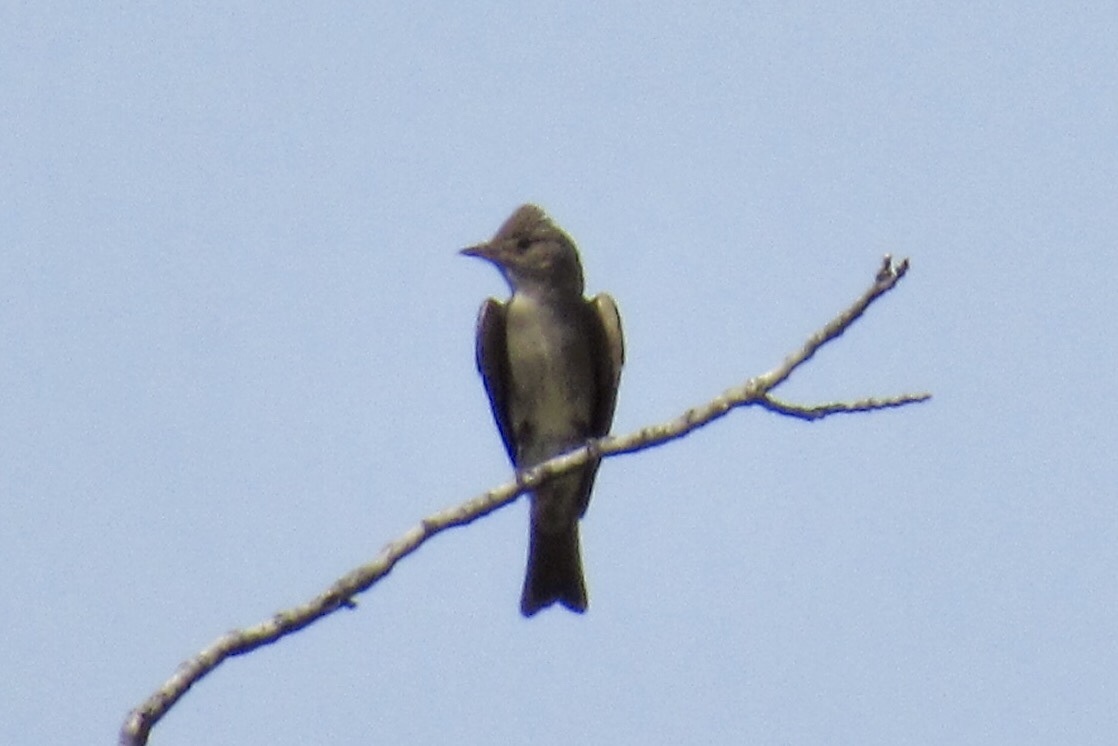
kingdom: Animalia
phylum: Chordata
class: Aves
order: Passeriformes
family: Tyrannidae
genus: Contopus
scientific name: Contopus sordidulus
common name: Western wood-pewee
